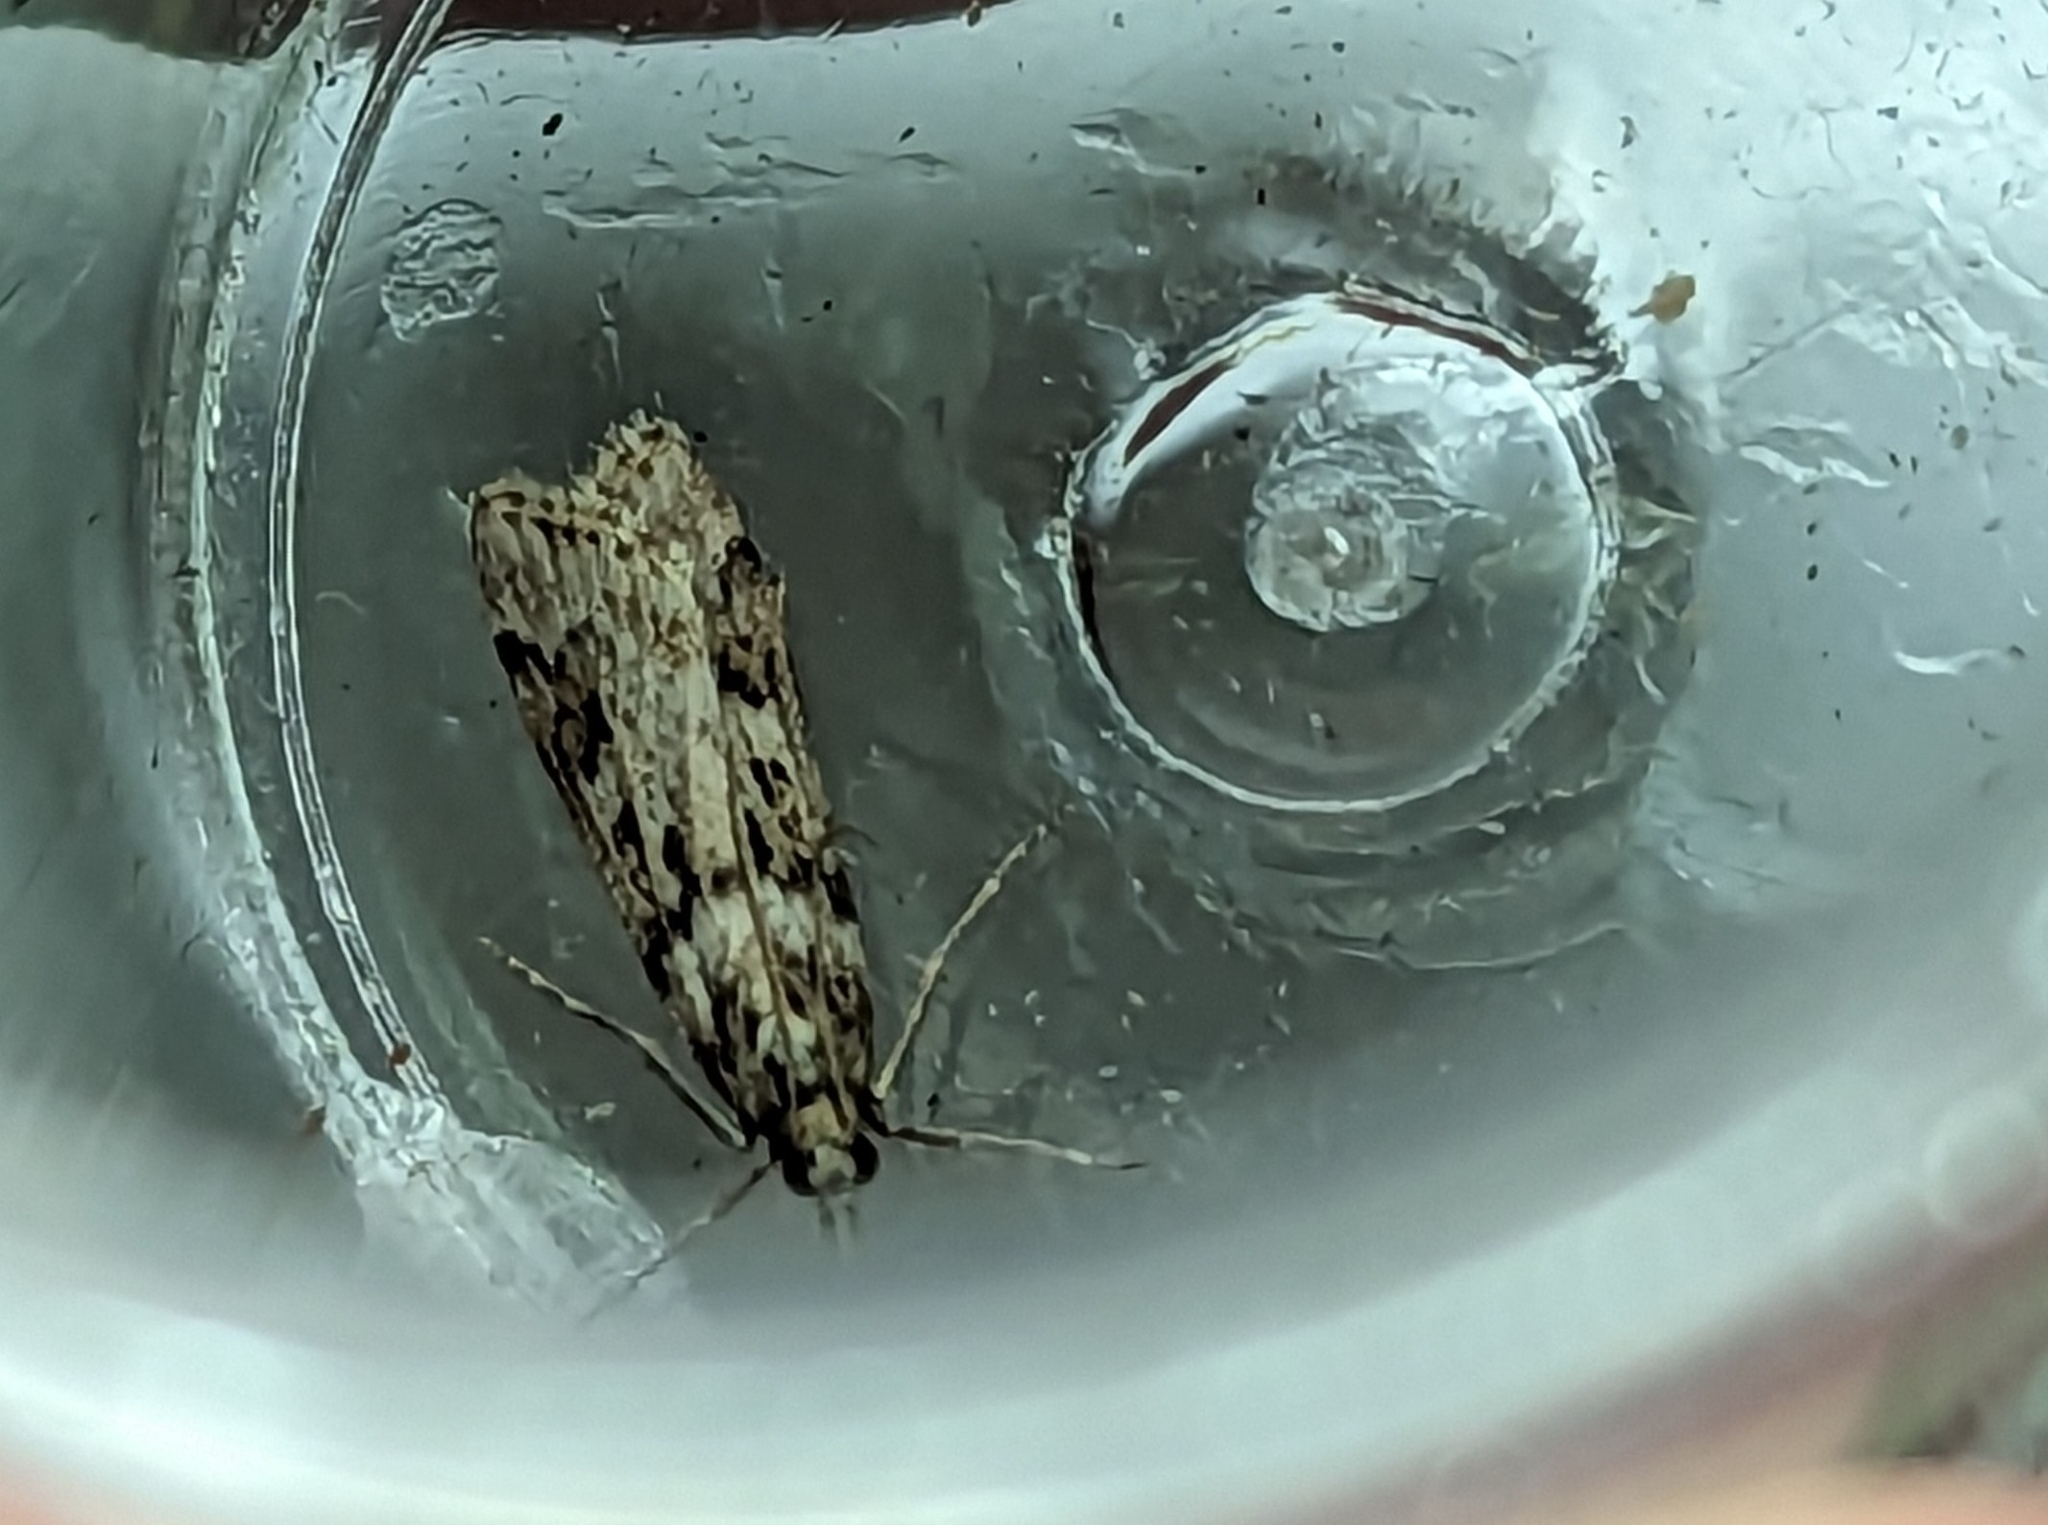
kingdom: Animalia
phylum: Arthropoda
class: Insecta
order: Lepidoptera
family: Crambidae
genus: Eudonia
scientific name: Eudonia angustea
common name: Narrow-winged grey
